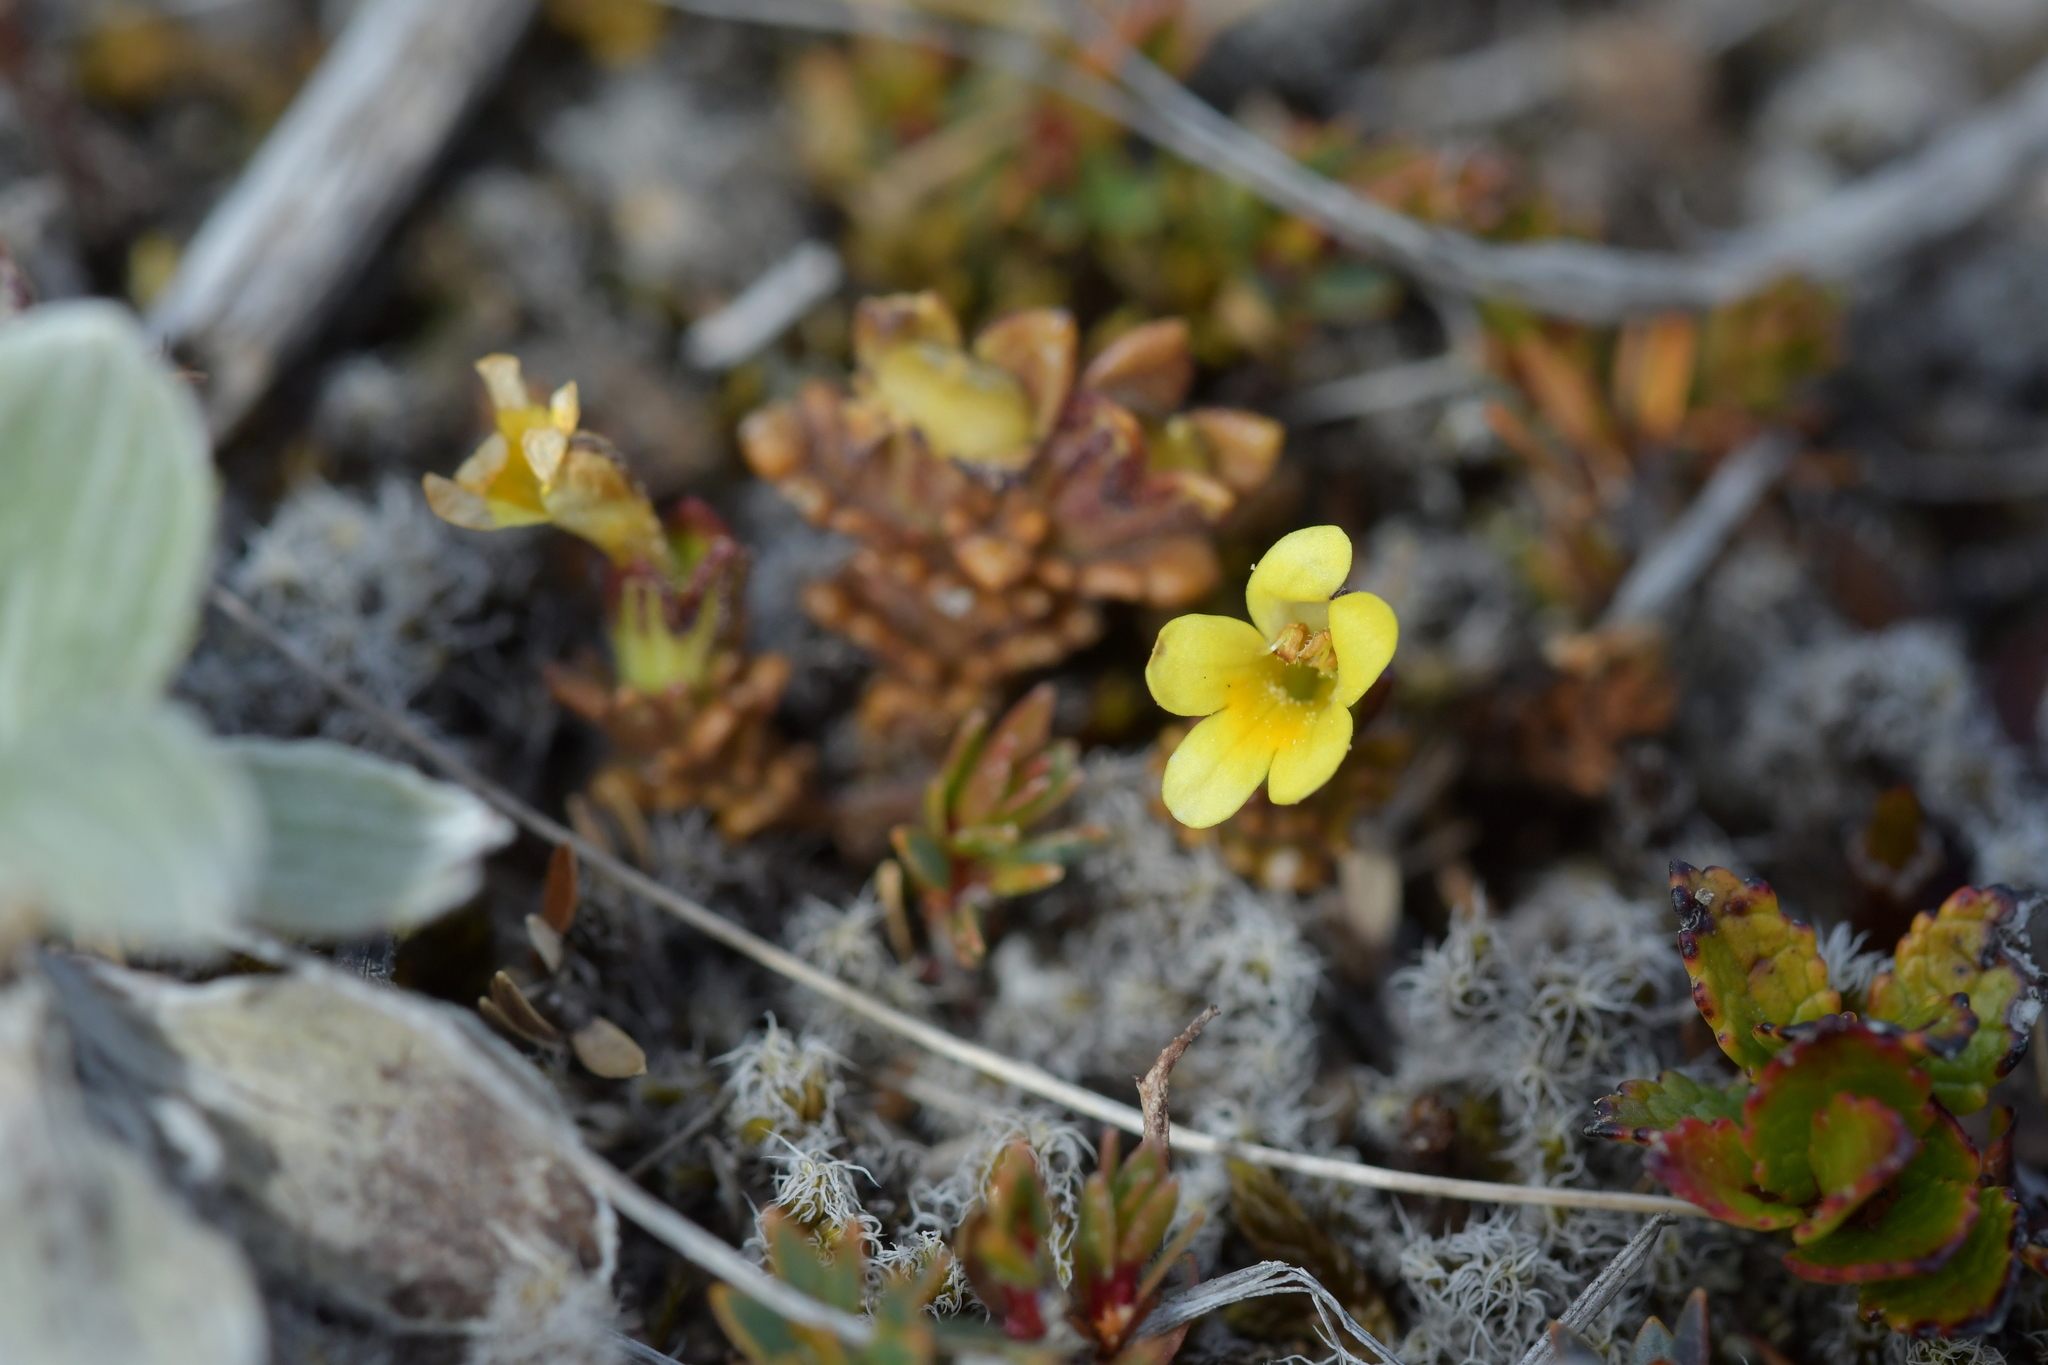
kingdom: Plantae
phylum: Tracheophyta
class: Magnoliopsida
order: Lamiales
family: Orobanchaceae
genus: Euphrasia
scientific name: Euphrasia cockayneana
